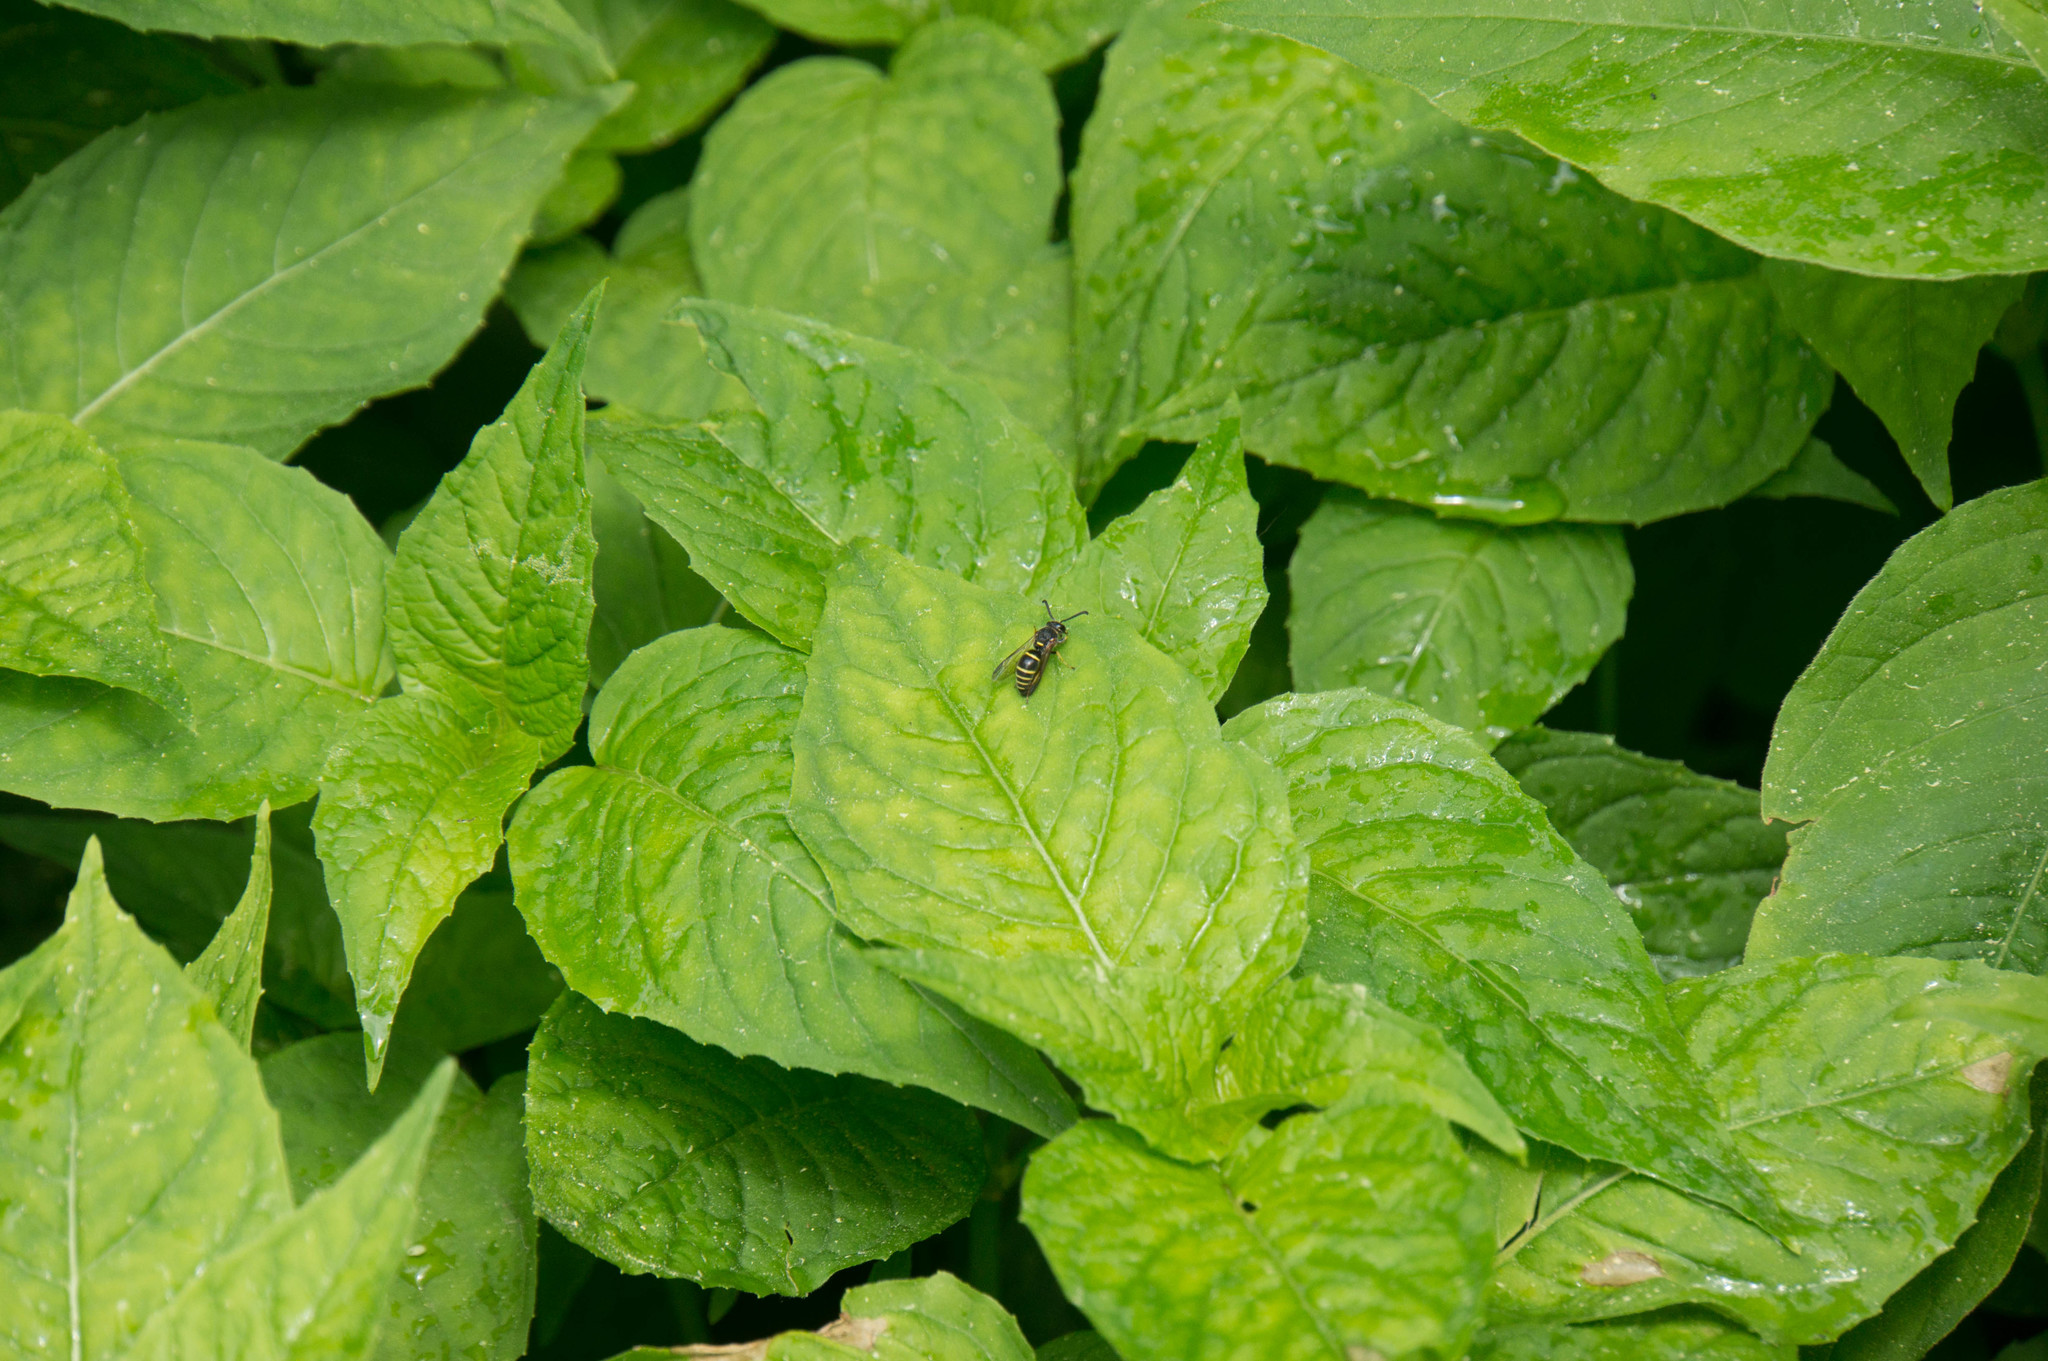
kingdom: Animalia
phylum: Arthropoda
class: Insecta
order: Hymenoptera
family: Eumenidae
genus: Euodynerus
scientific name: Euodynerus foraminatus
